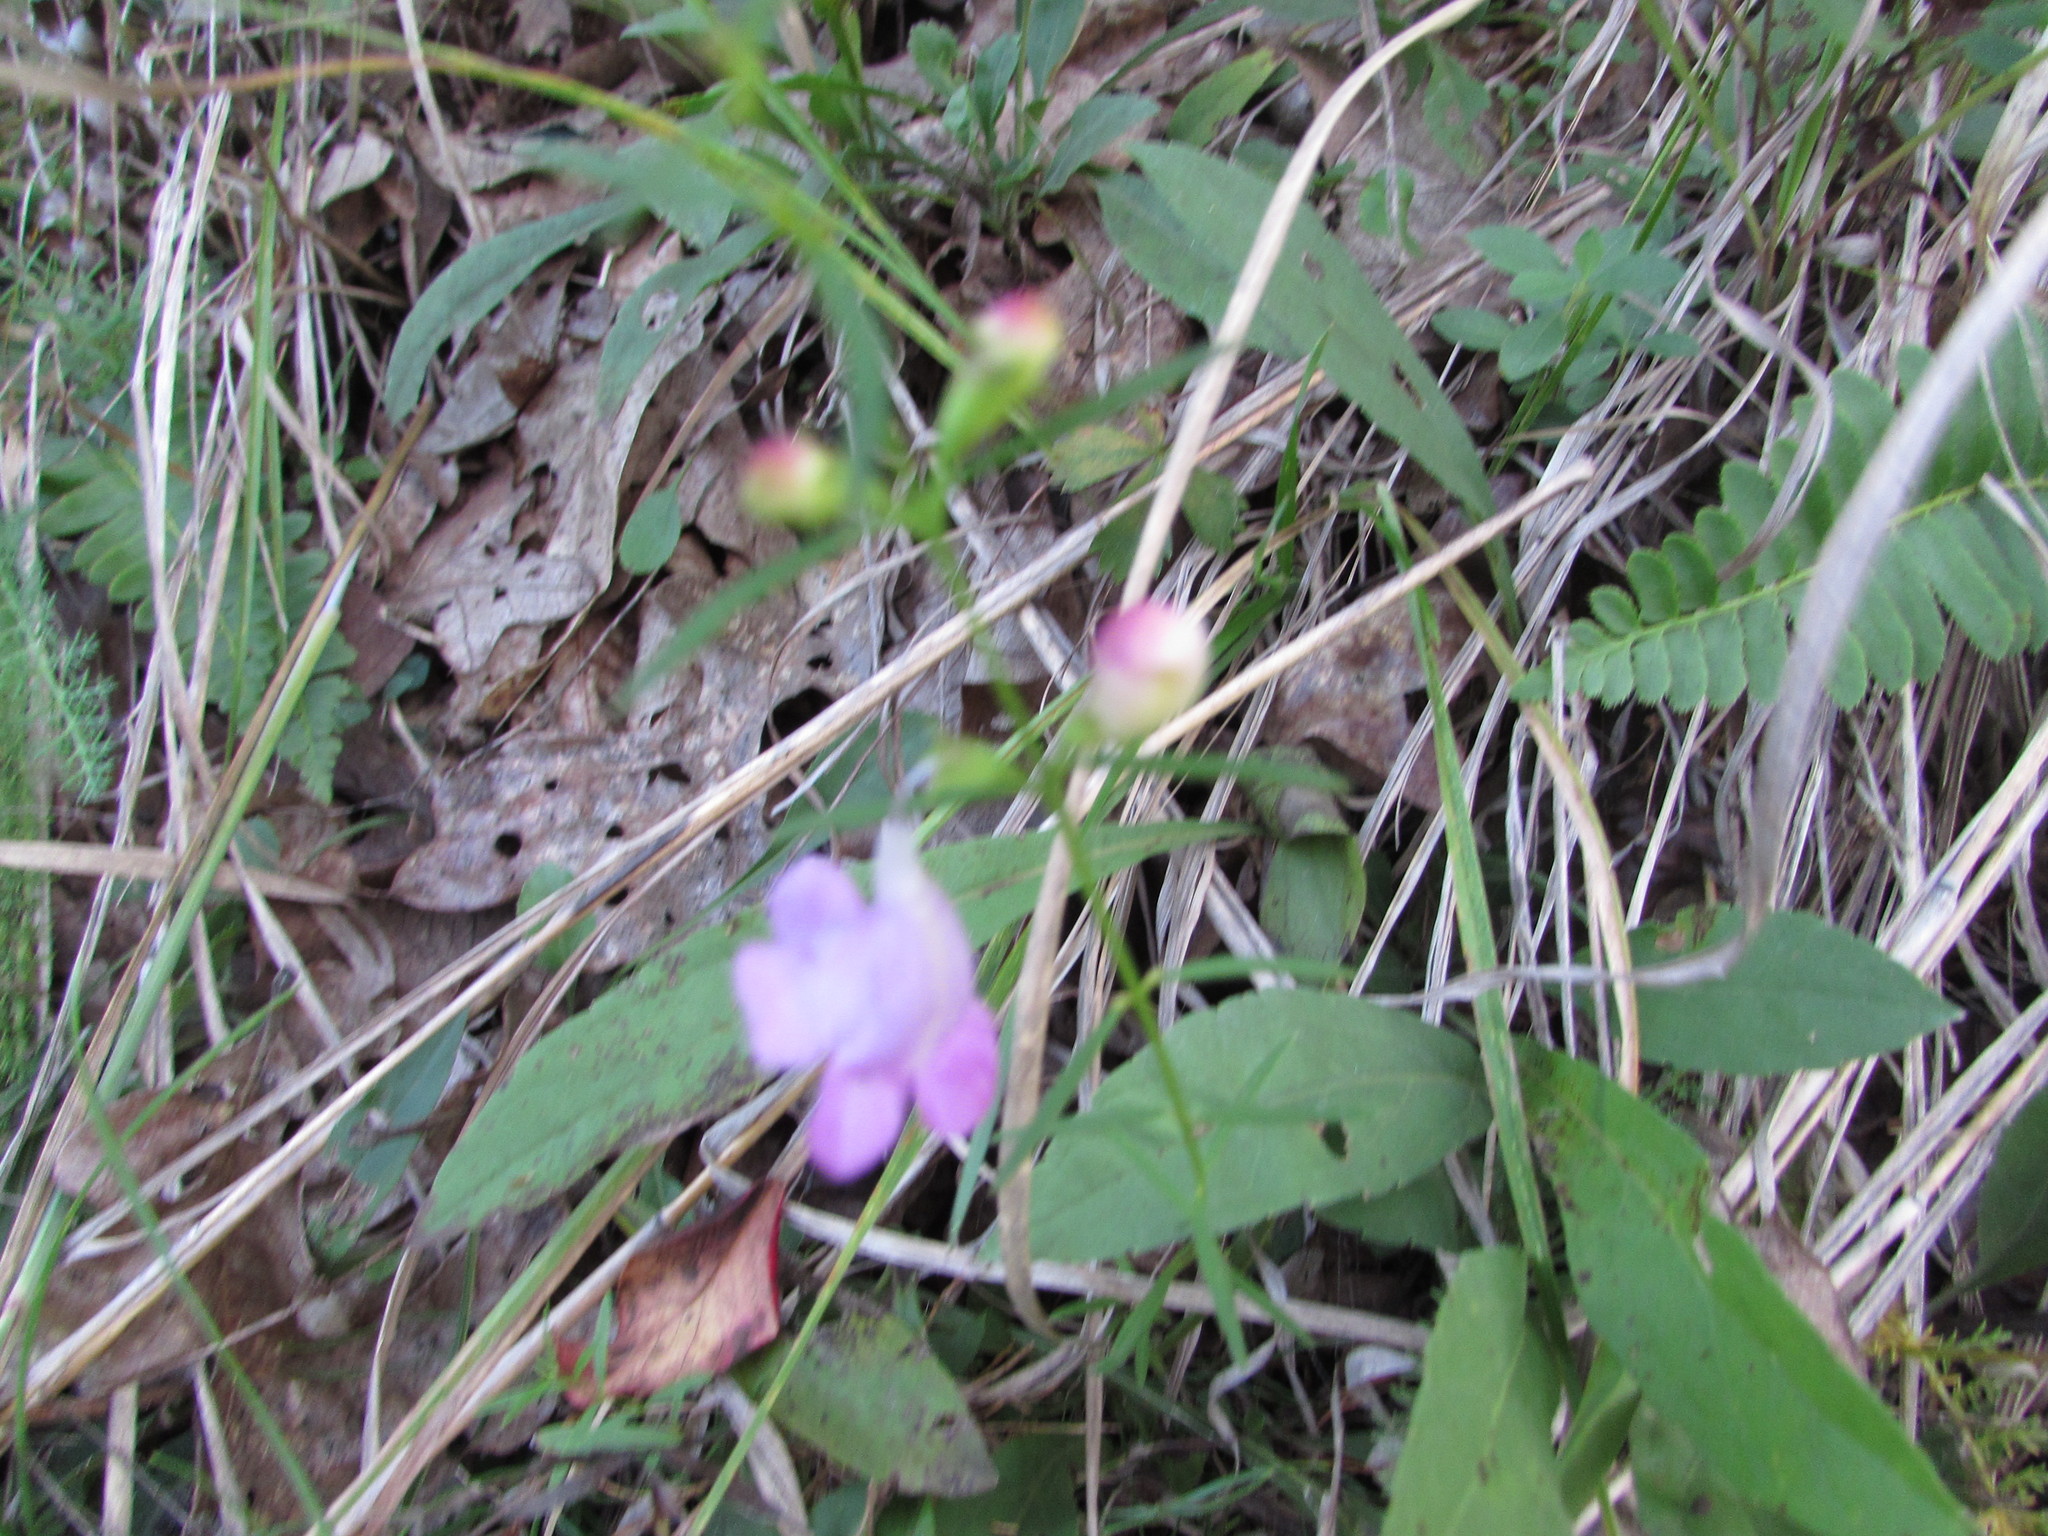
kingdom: Plantae
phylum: Tracheophyta
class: Magnoliopsida
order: Lamiales
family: Orobanchaceae
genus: Agalinis
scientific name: Agalinis purpurea
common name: Purple false foxglove
